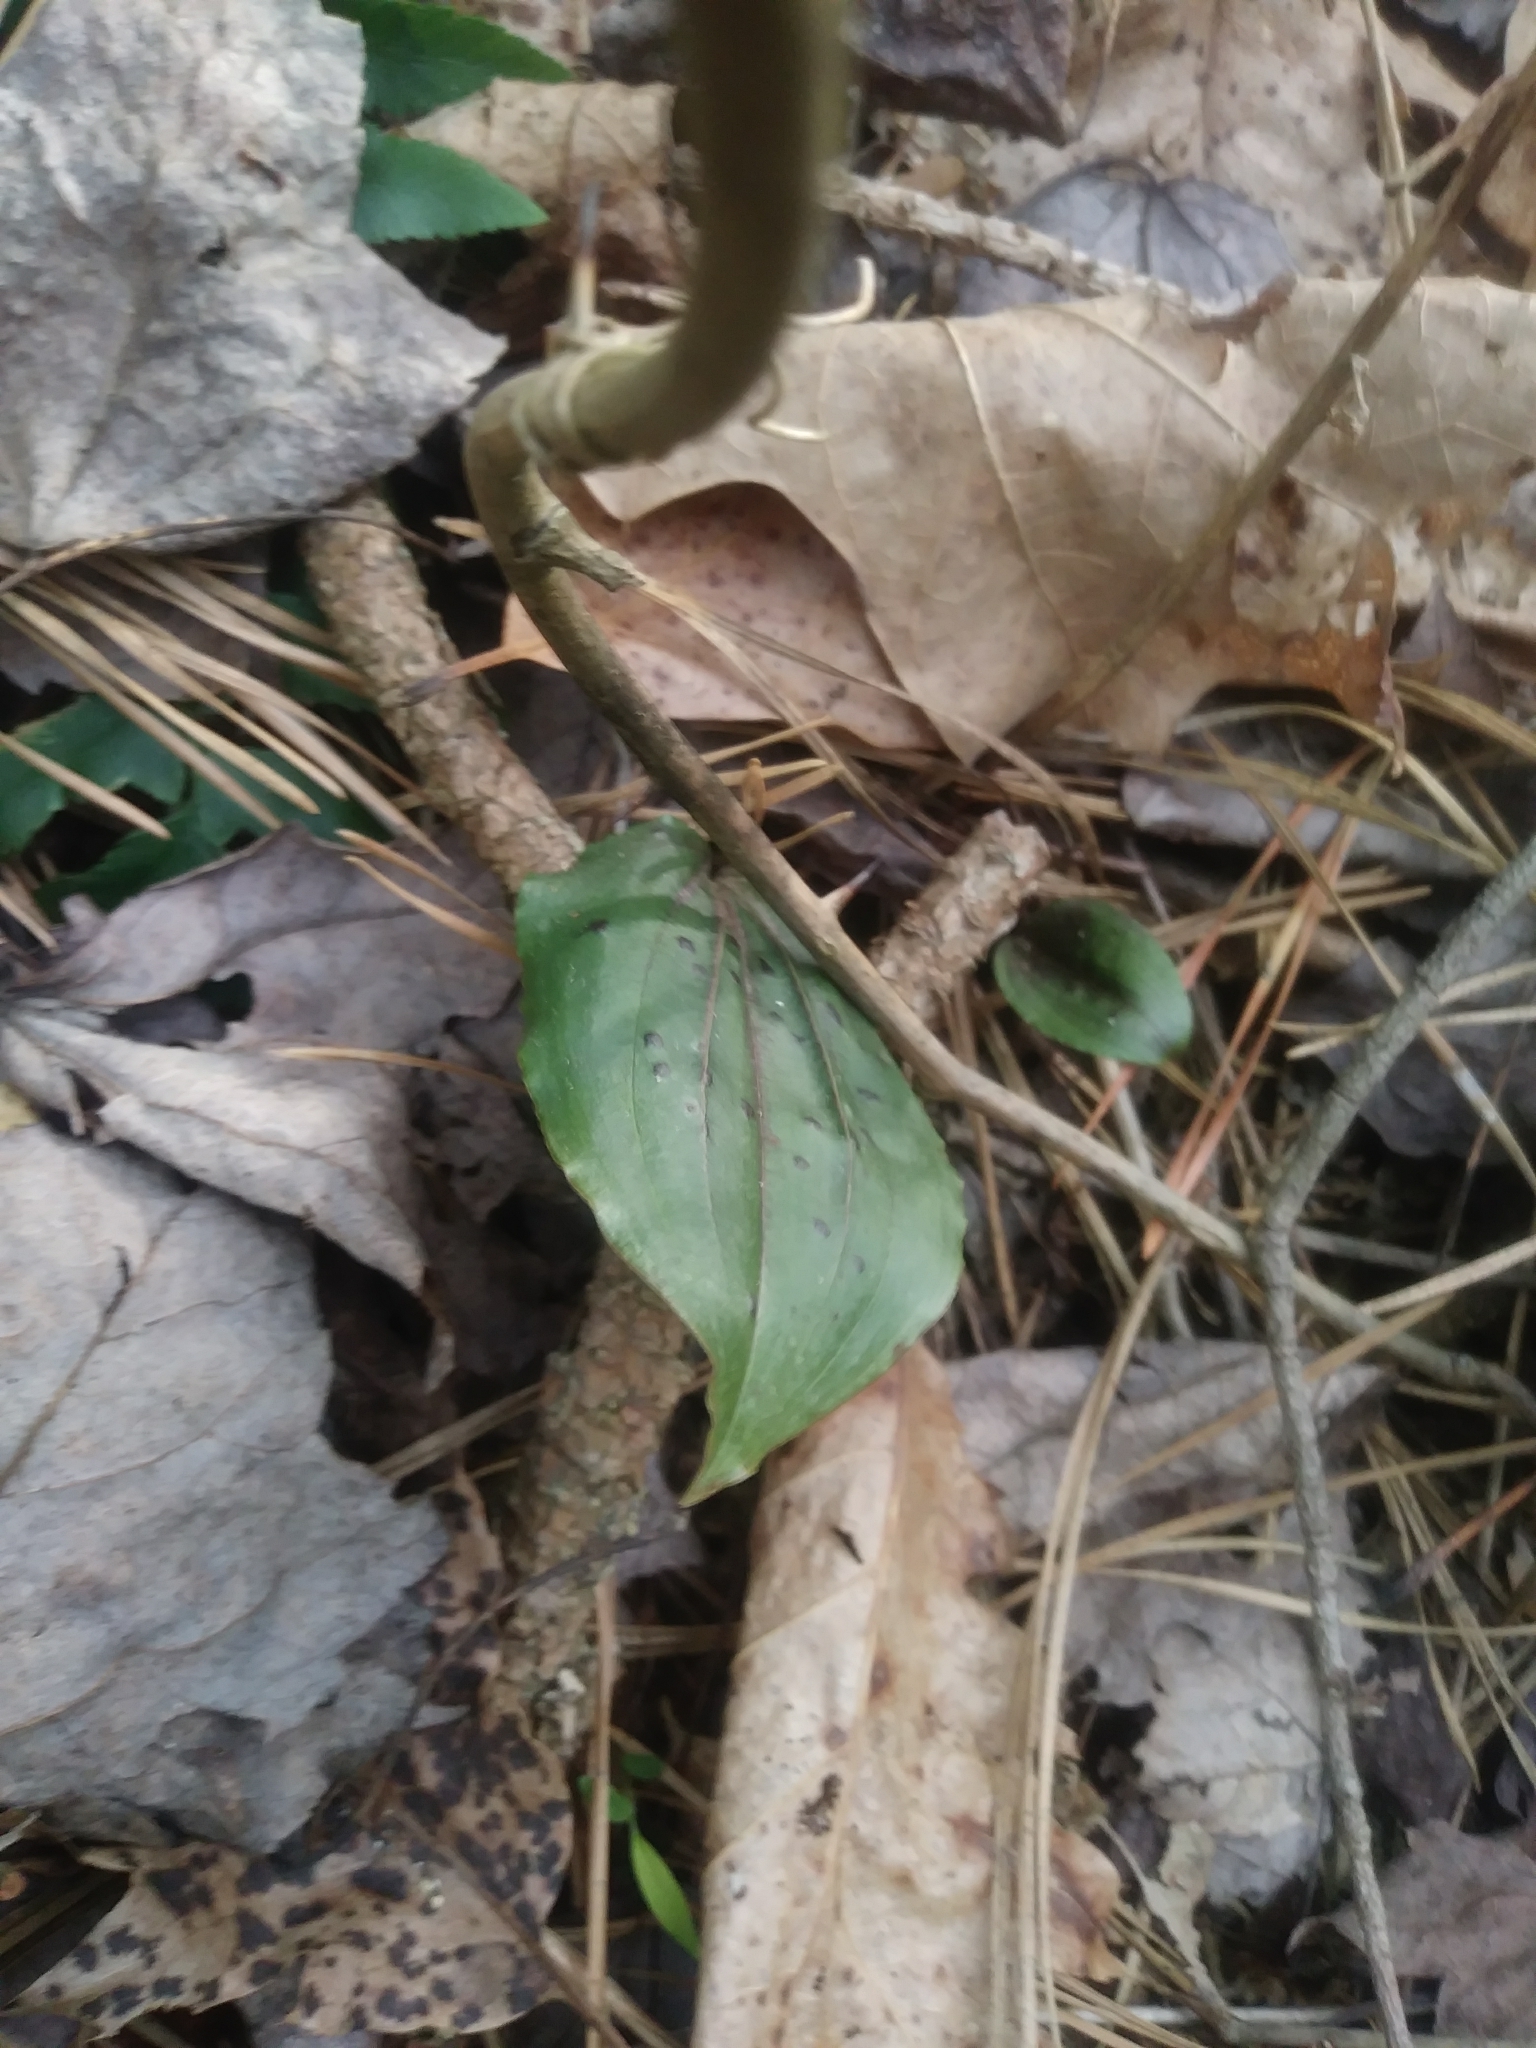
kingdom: Plantae
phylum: Tracheophyta
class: Liliopsida
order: Asparagales
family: Orchidaceae
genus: Tipularia
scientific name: Tipularia discolor
